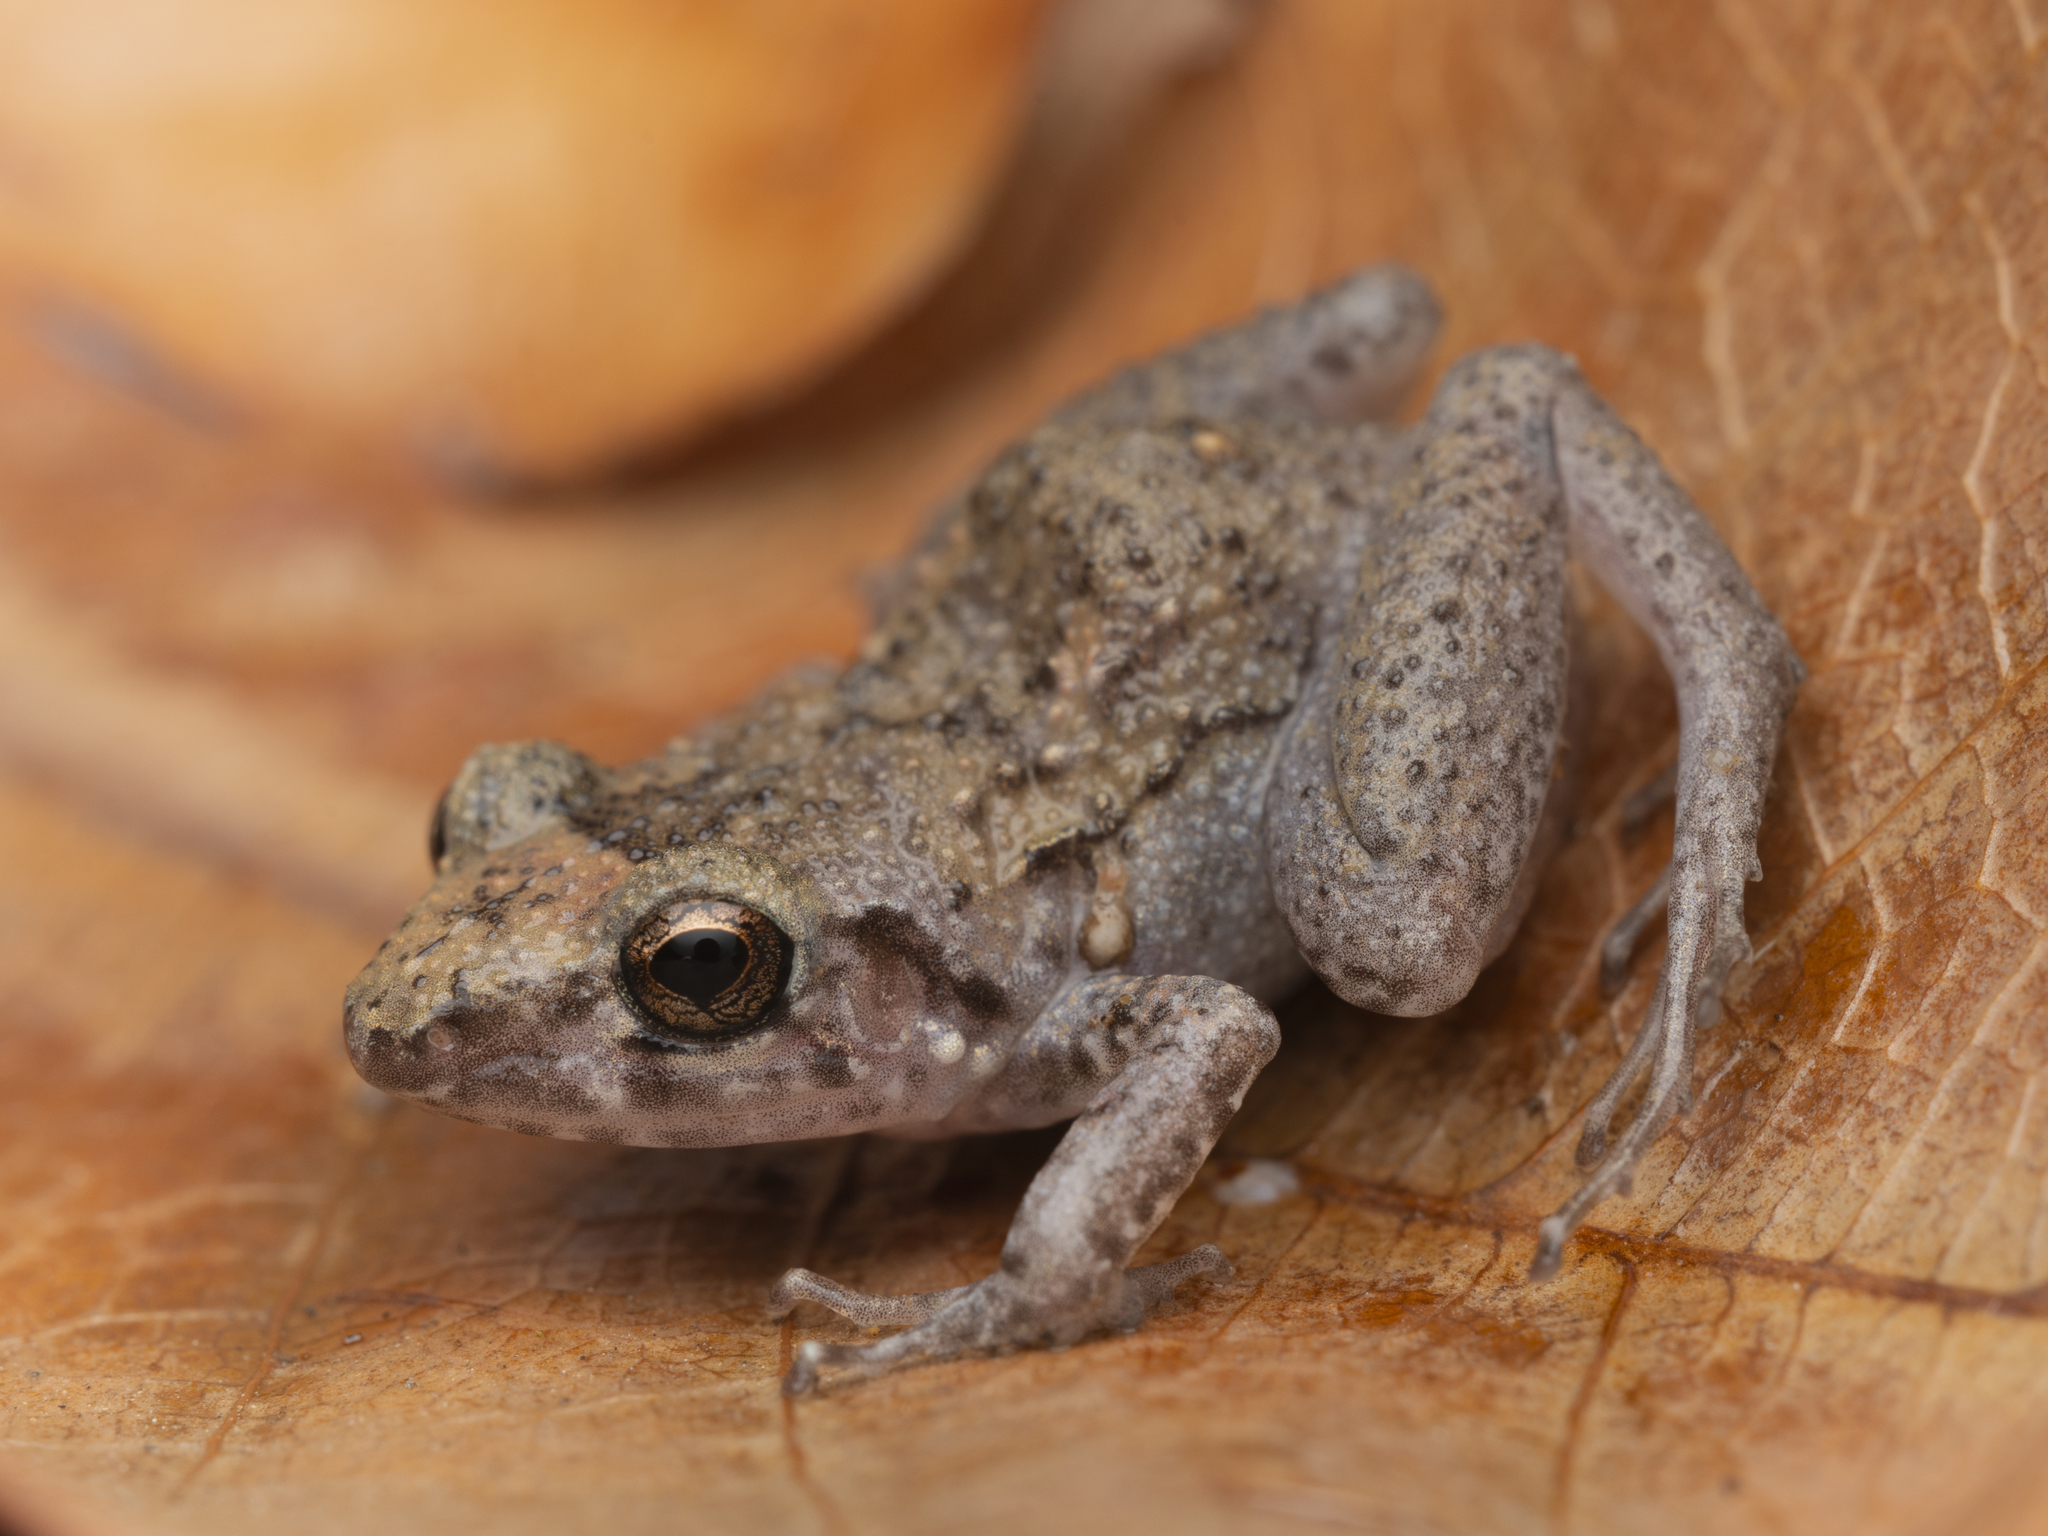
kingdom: Animalia
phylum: Chordata
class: Amphibia
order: Anura
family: Eleutherodactylidae
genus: Eleutherodactylus
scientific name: Eleutherodactylus planirostris
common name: Greenhouse frog
